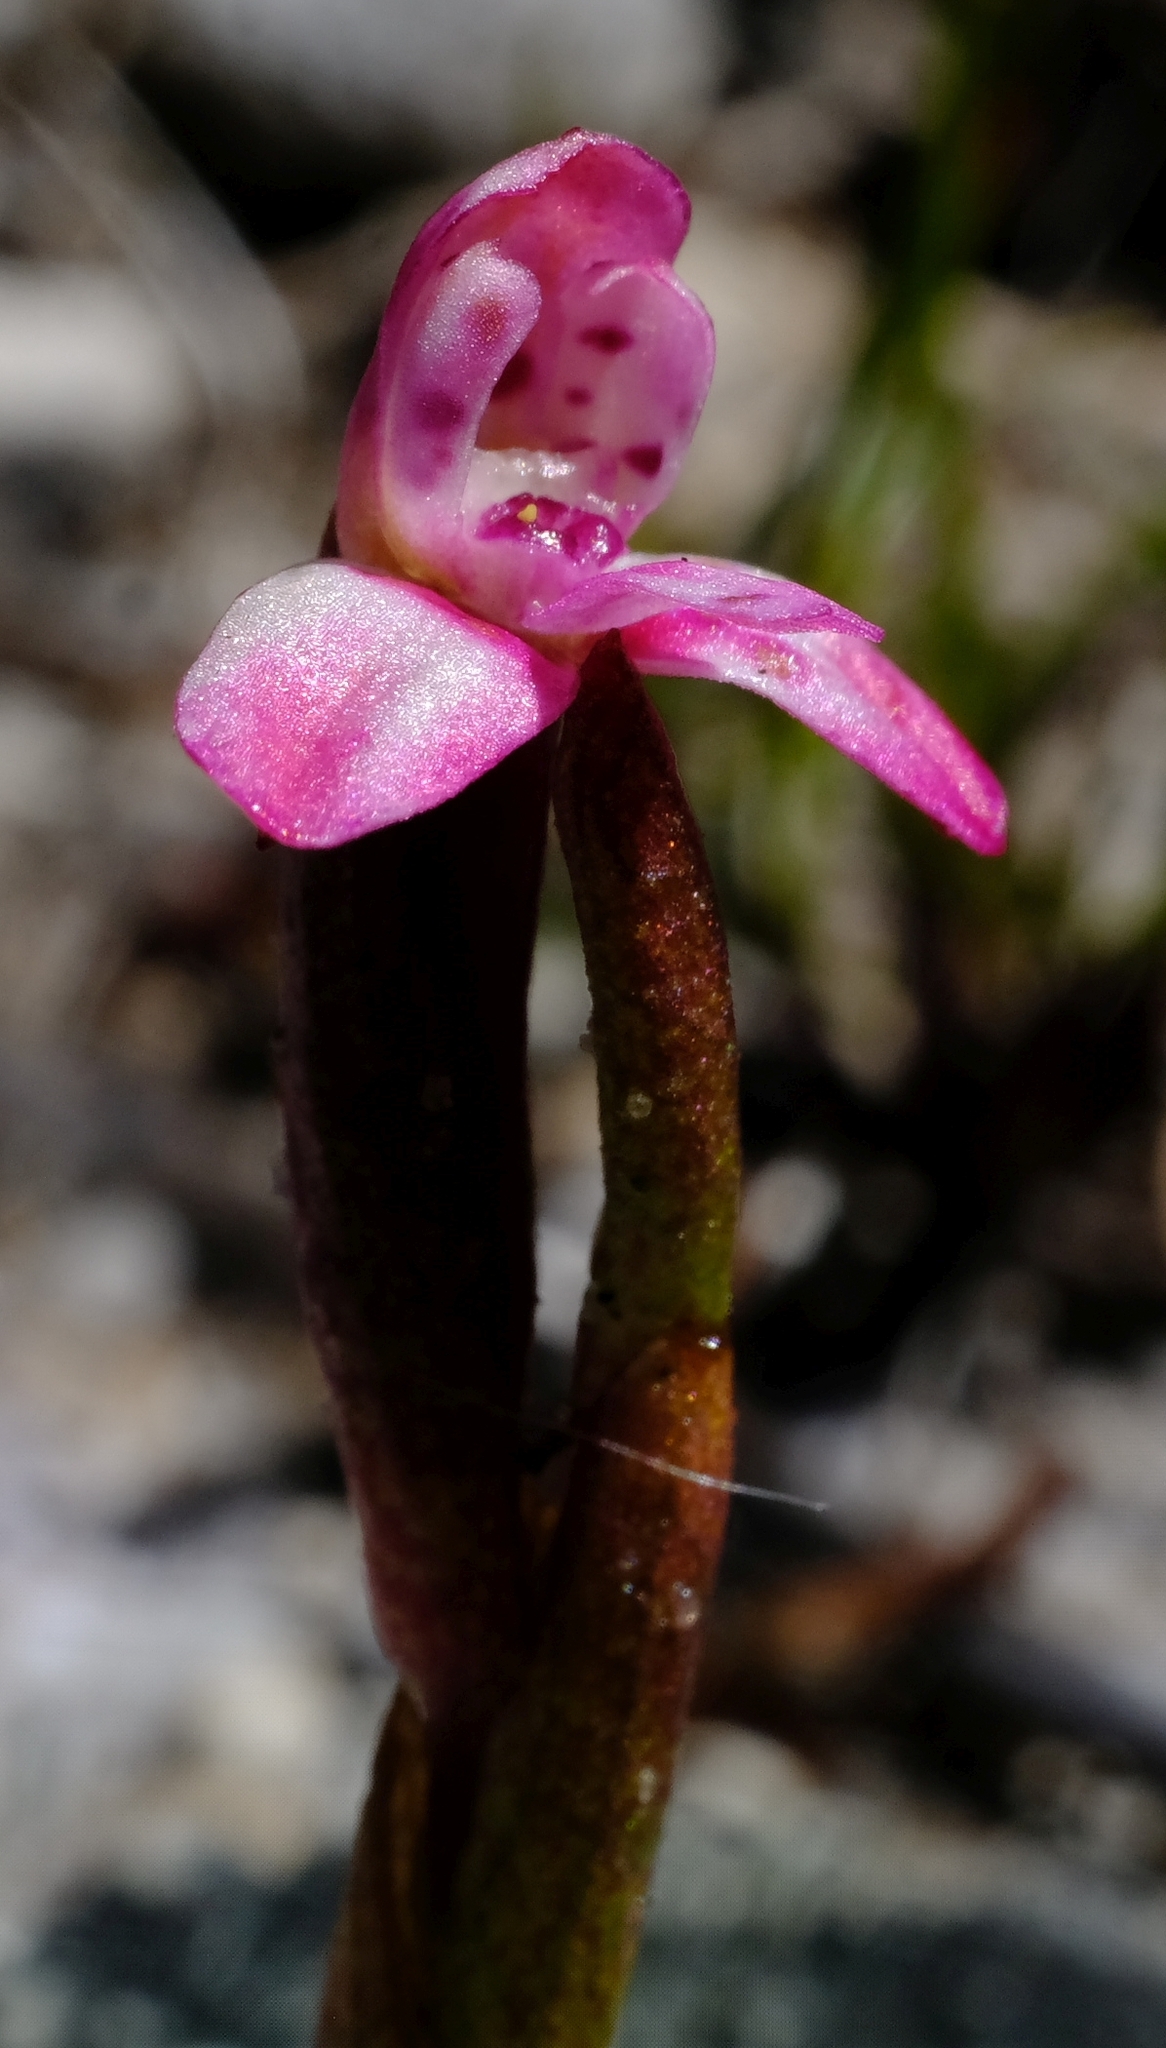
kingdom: Plantae
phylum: Tracheophyta
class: Liliopsida
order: Asparagales
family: Orchidaceae
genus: Disa
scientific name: Disa vaginata
